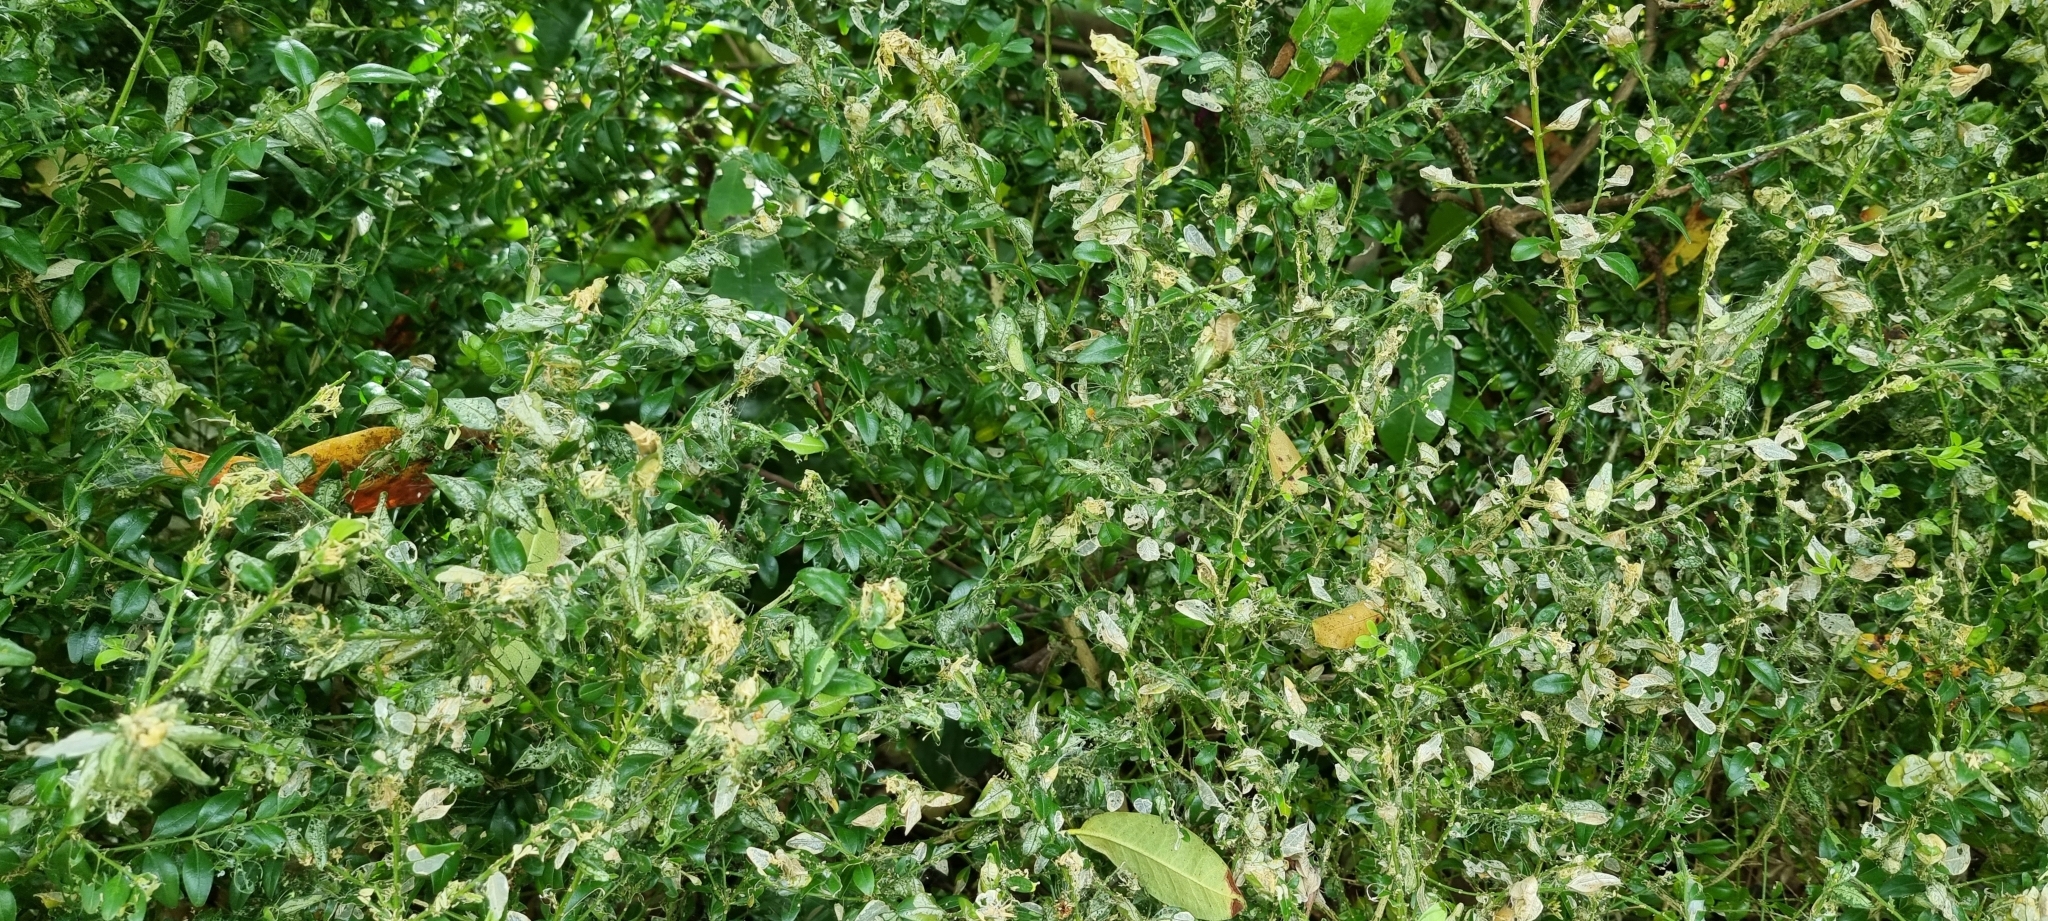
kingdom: Animalia
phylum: Arthropoda
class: Insecta
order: Lepidoptera
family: Crambidae
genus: Cydalima
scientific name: Cydalima perspectalis
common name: Box tree moth
